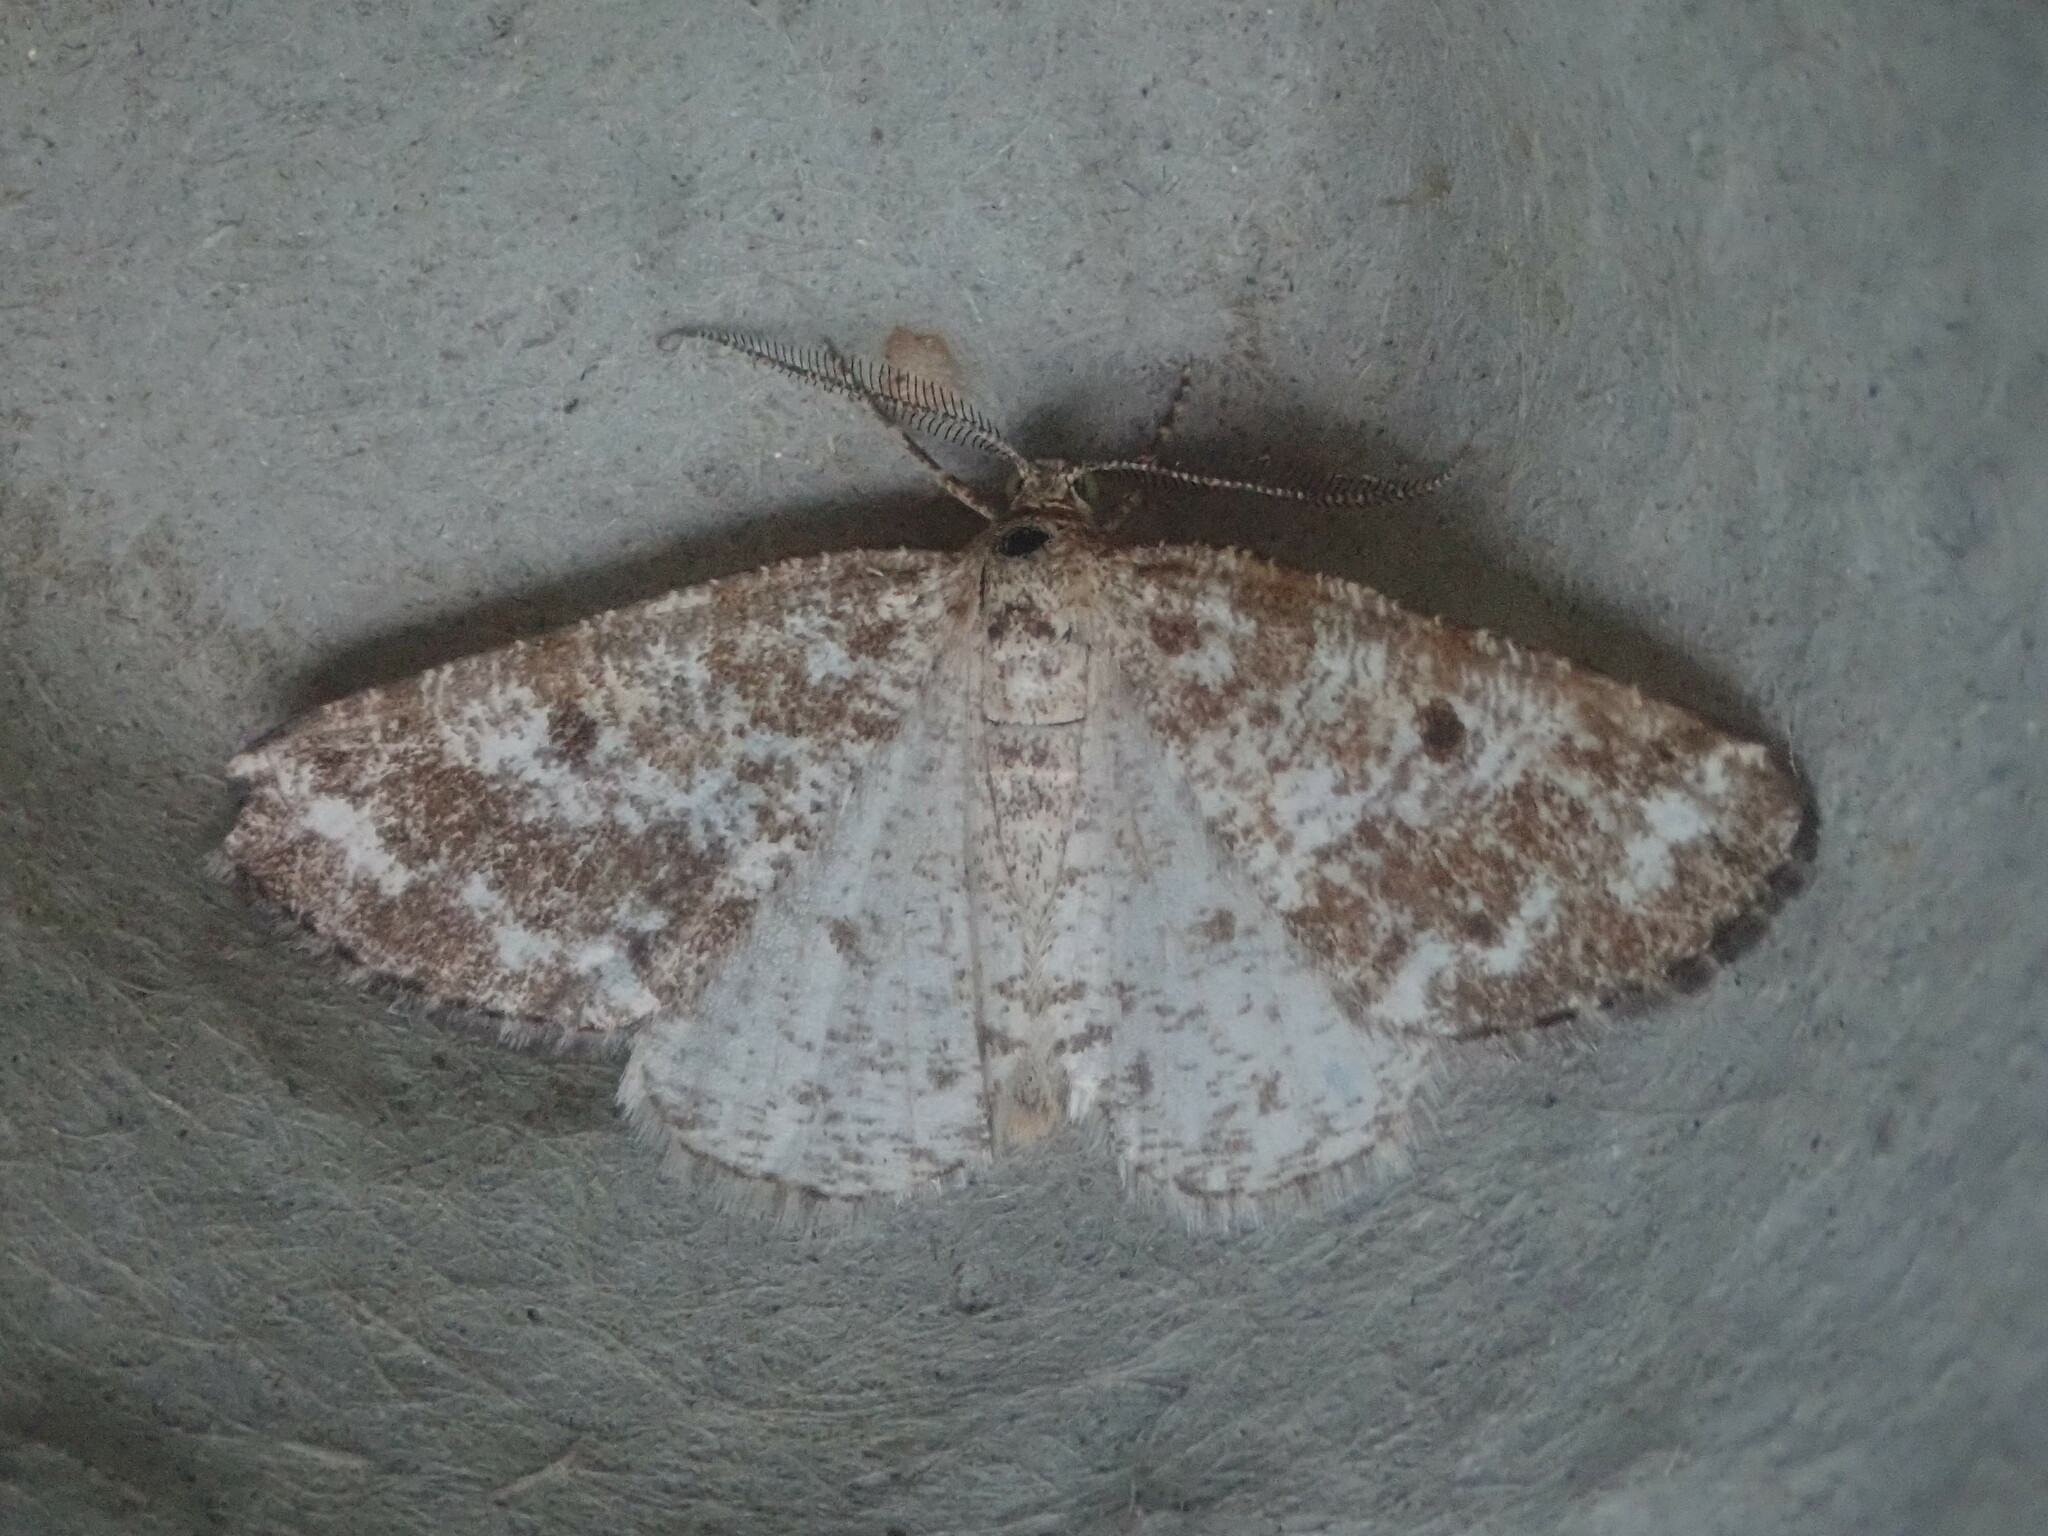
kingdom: Animalia
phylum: Arthropoda
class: Insecta
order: Lepidoptera
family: Geometridae
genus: Eufidonia
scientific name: Eufidonia notataria
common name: Powder moth
